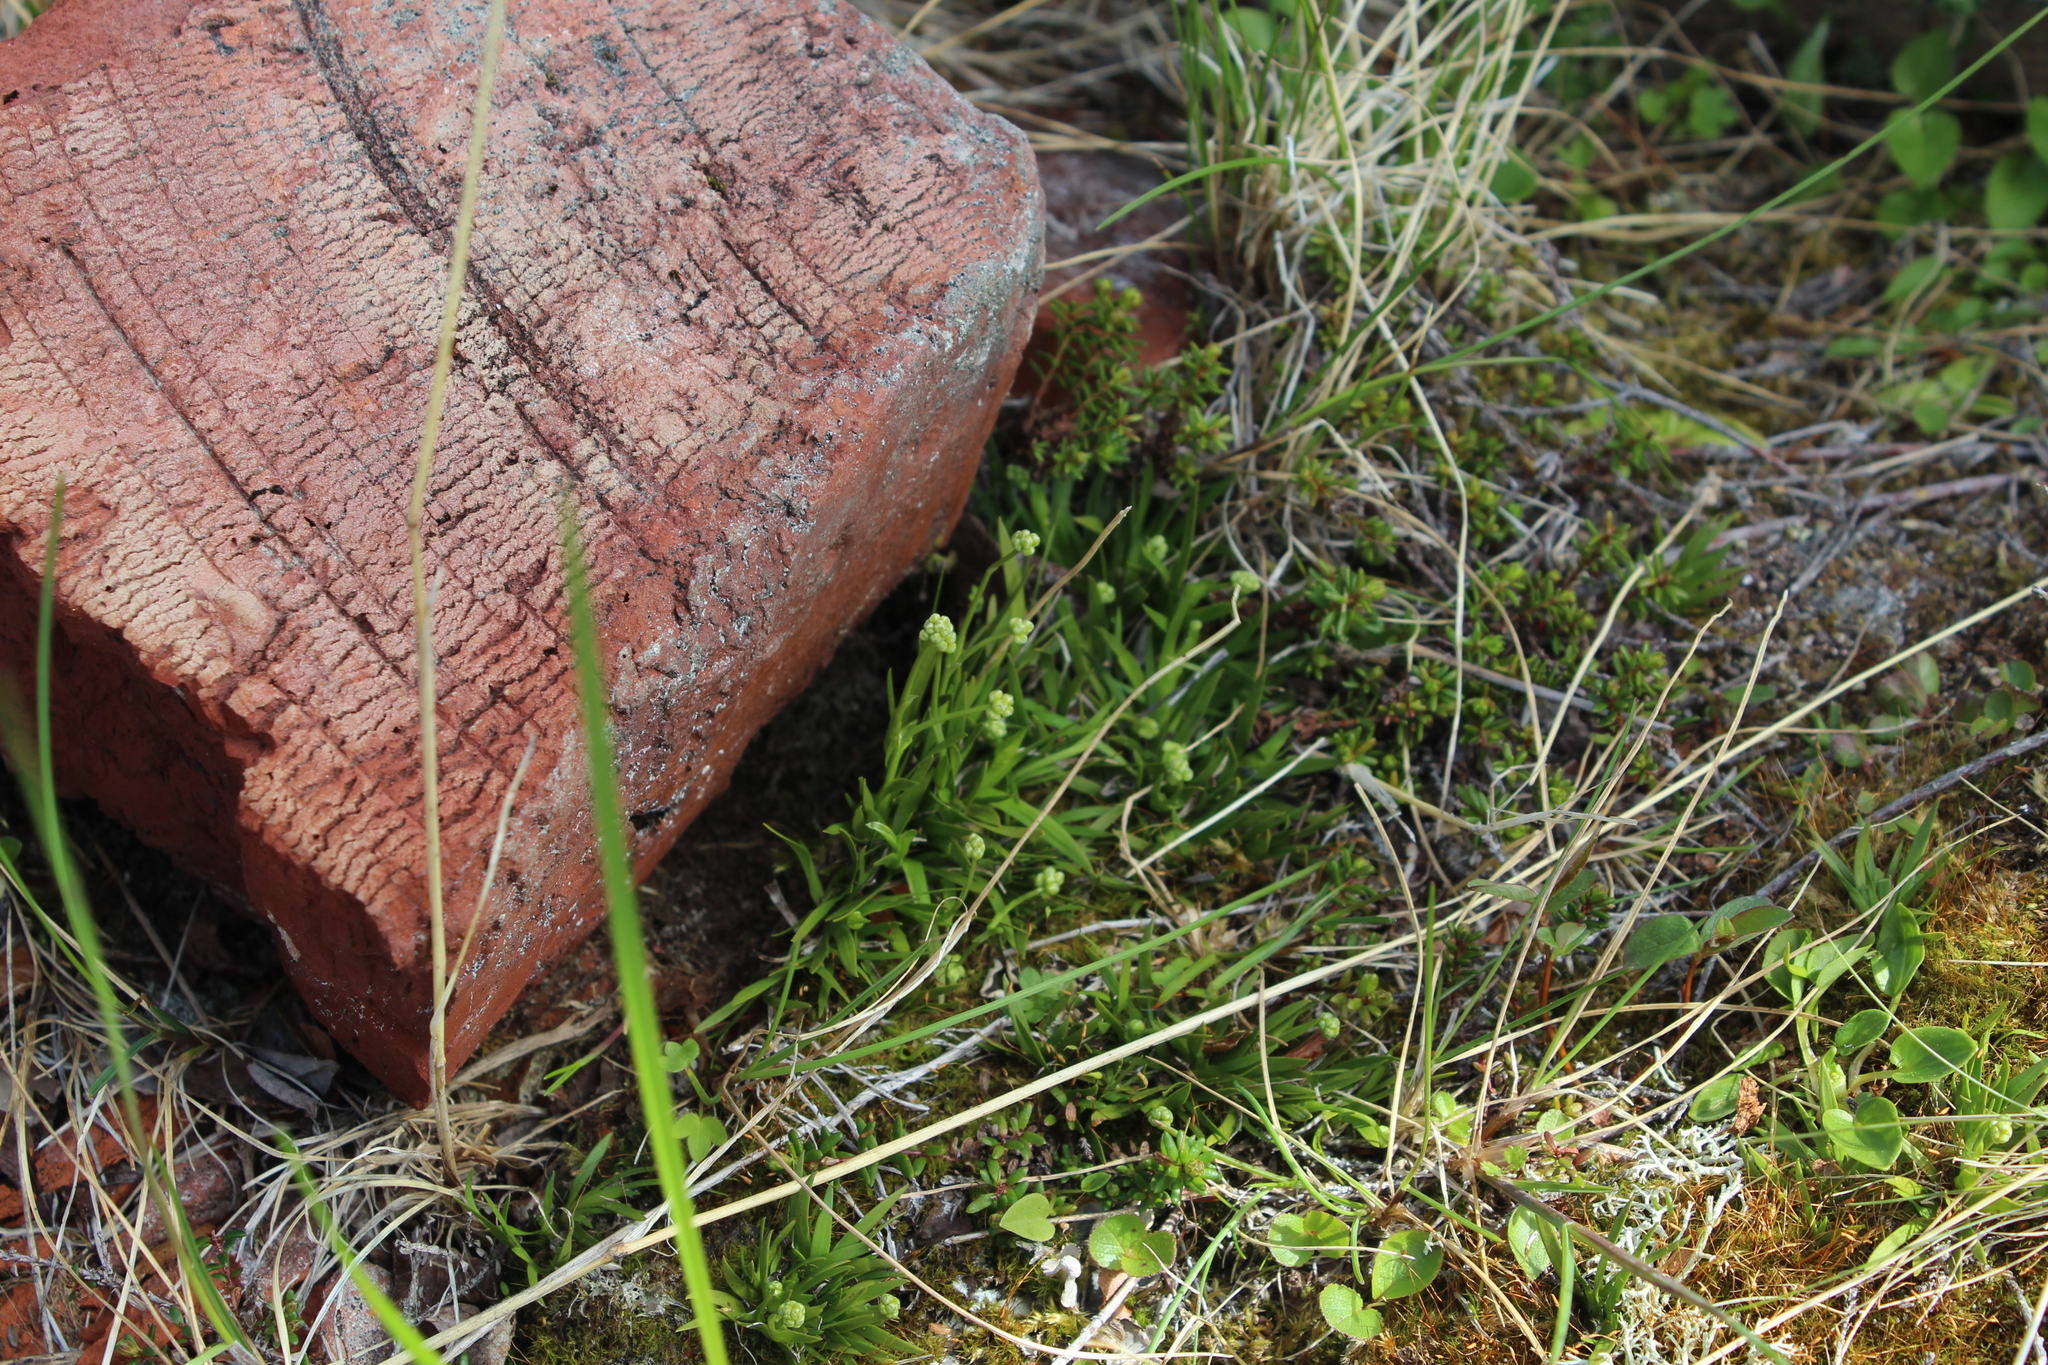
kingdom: Plantae
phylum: Tracheophyta
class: Liliopsida
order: Alismatales
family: Tofieldiaceae
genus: Tofieldia
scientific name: Tofieldia pusilla
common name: Scottish false asphodel
